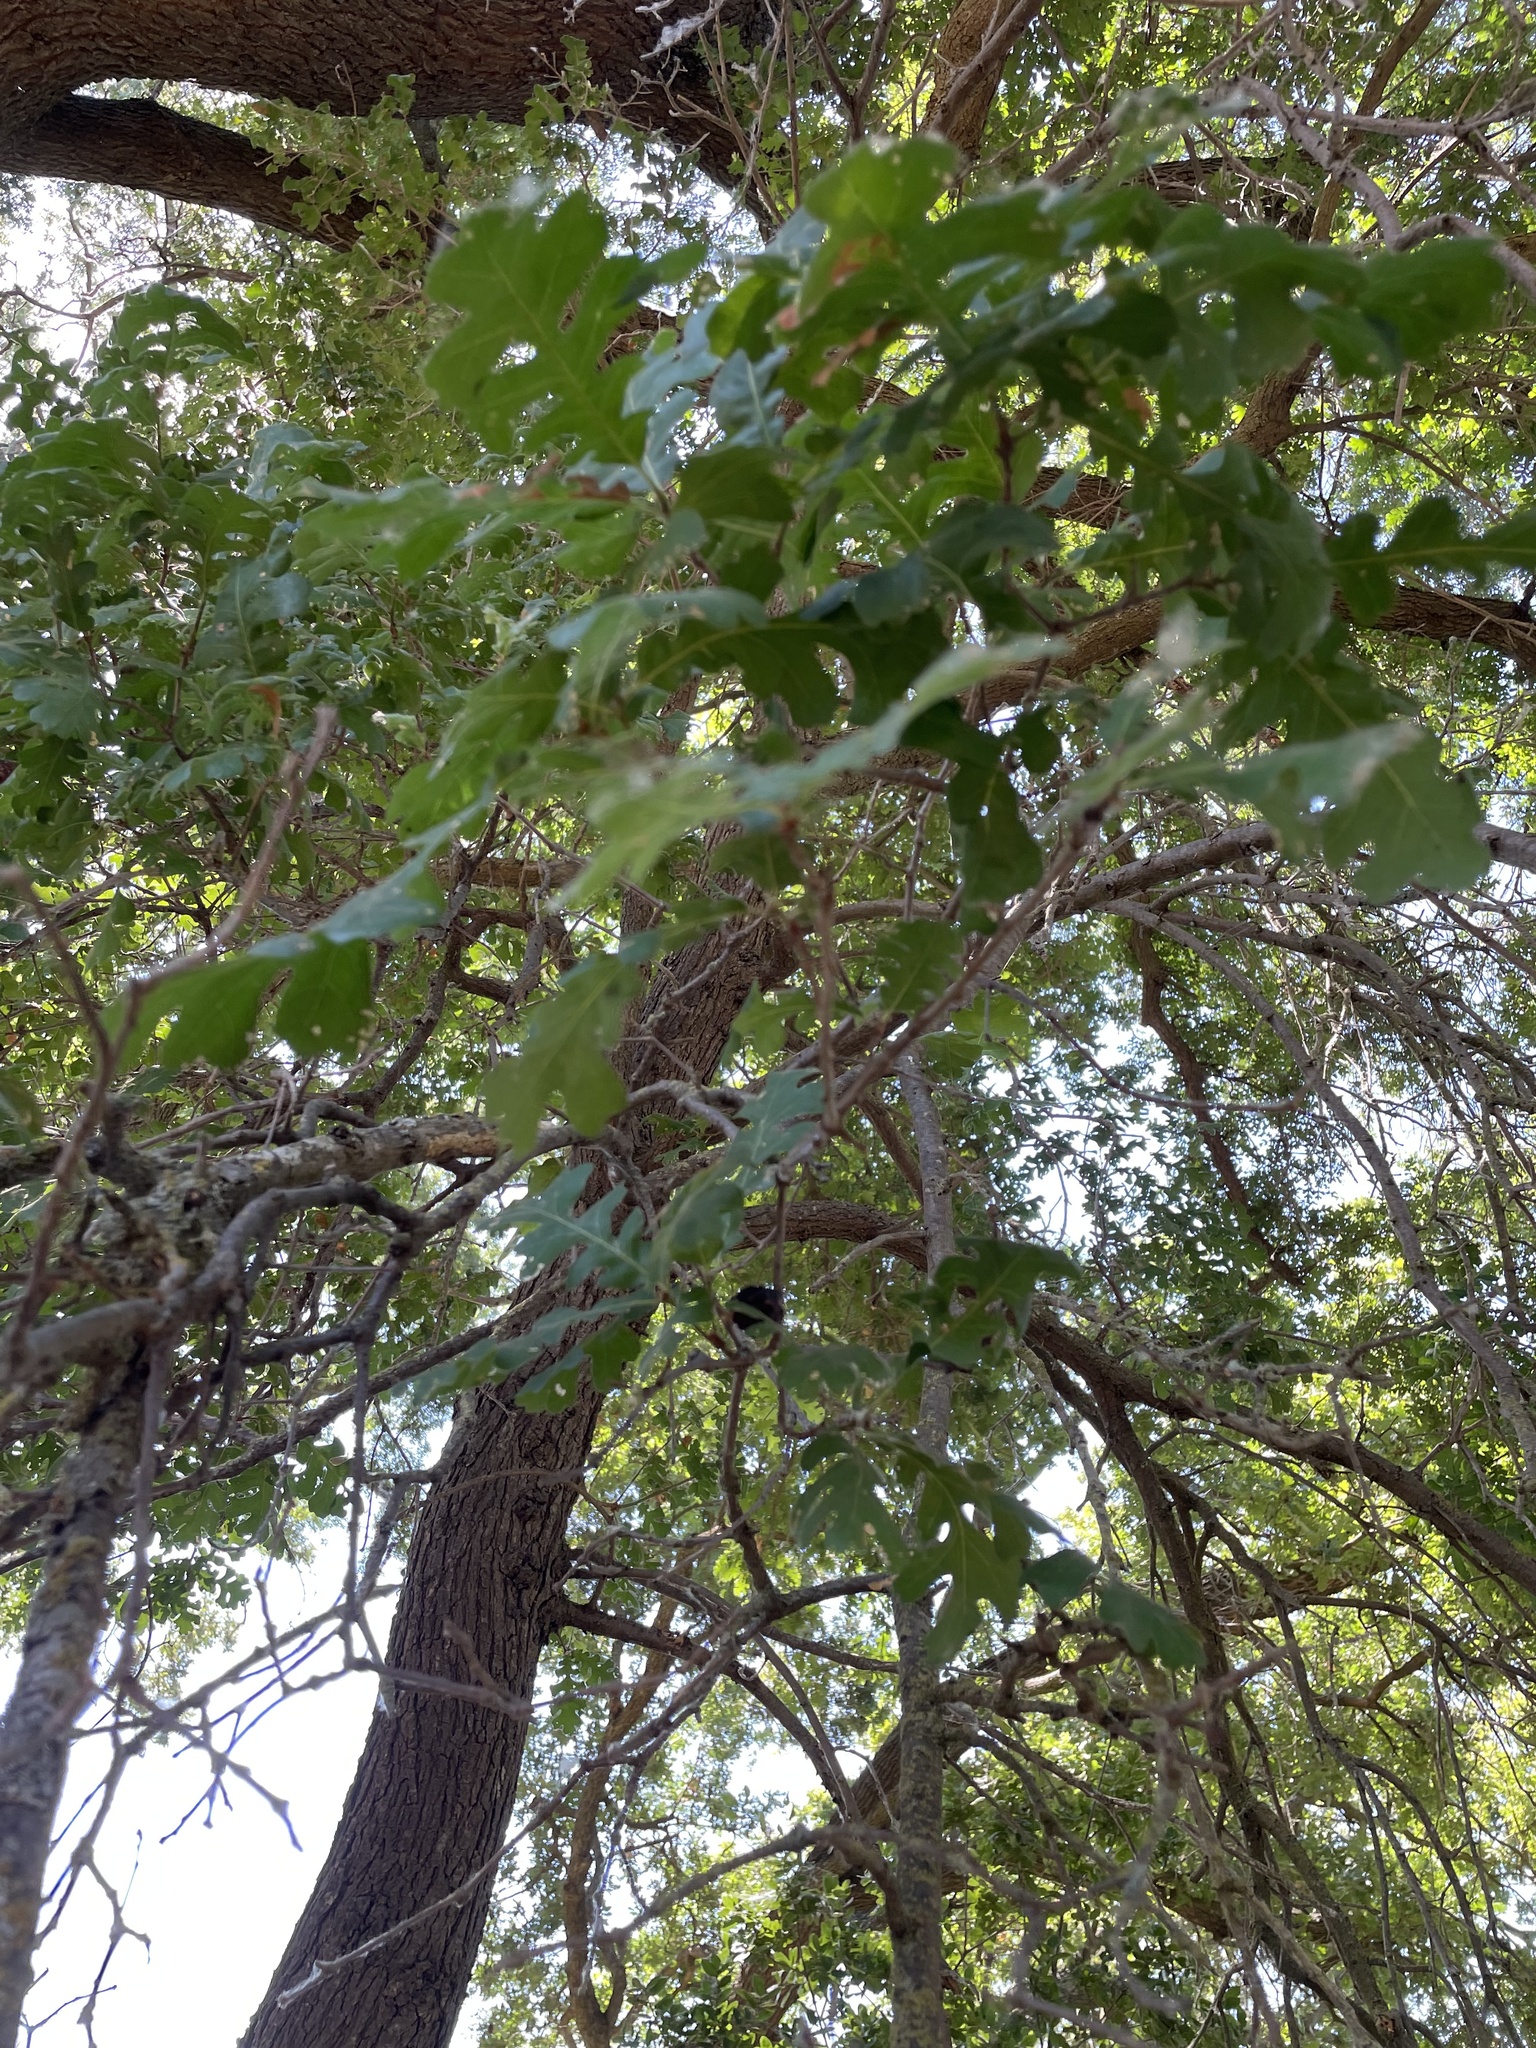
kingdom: Plantae
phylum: Tracheophyta
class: Magnoliopsida
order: Fagales
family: Fagaceae
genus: Quercus
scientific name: Quercus lobata
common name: Valley oak
